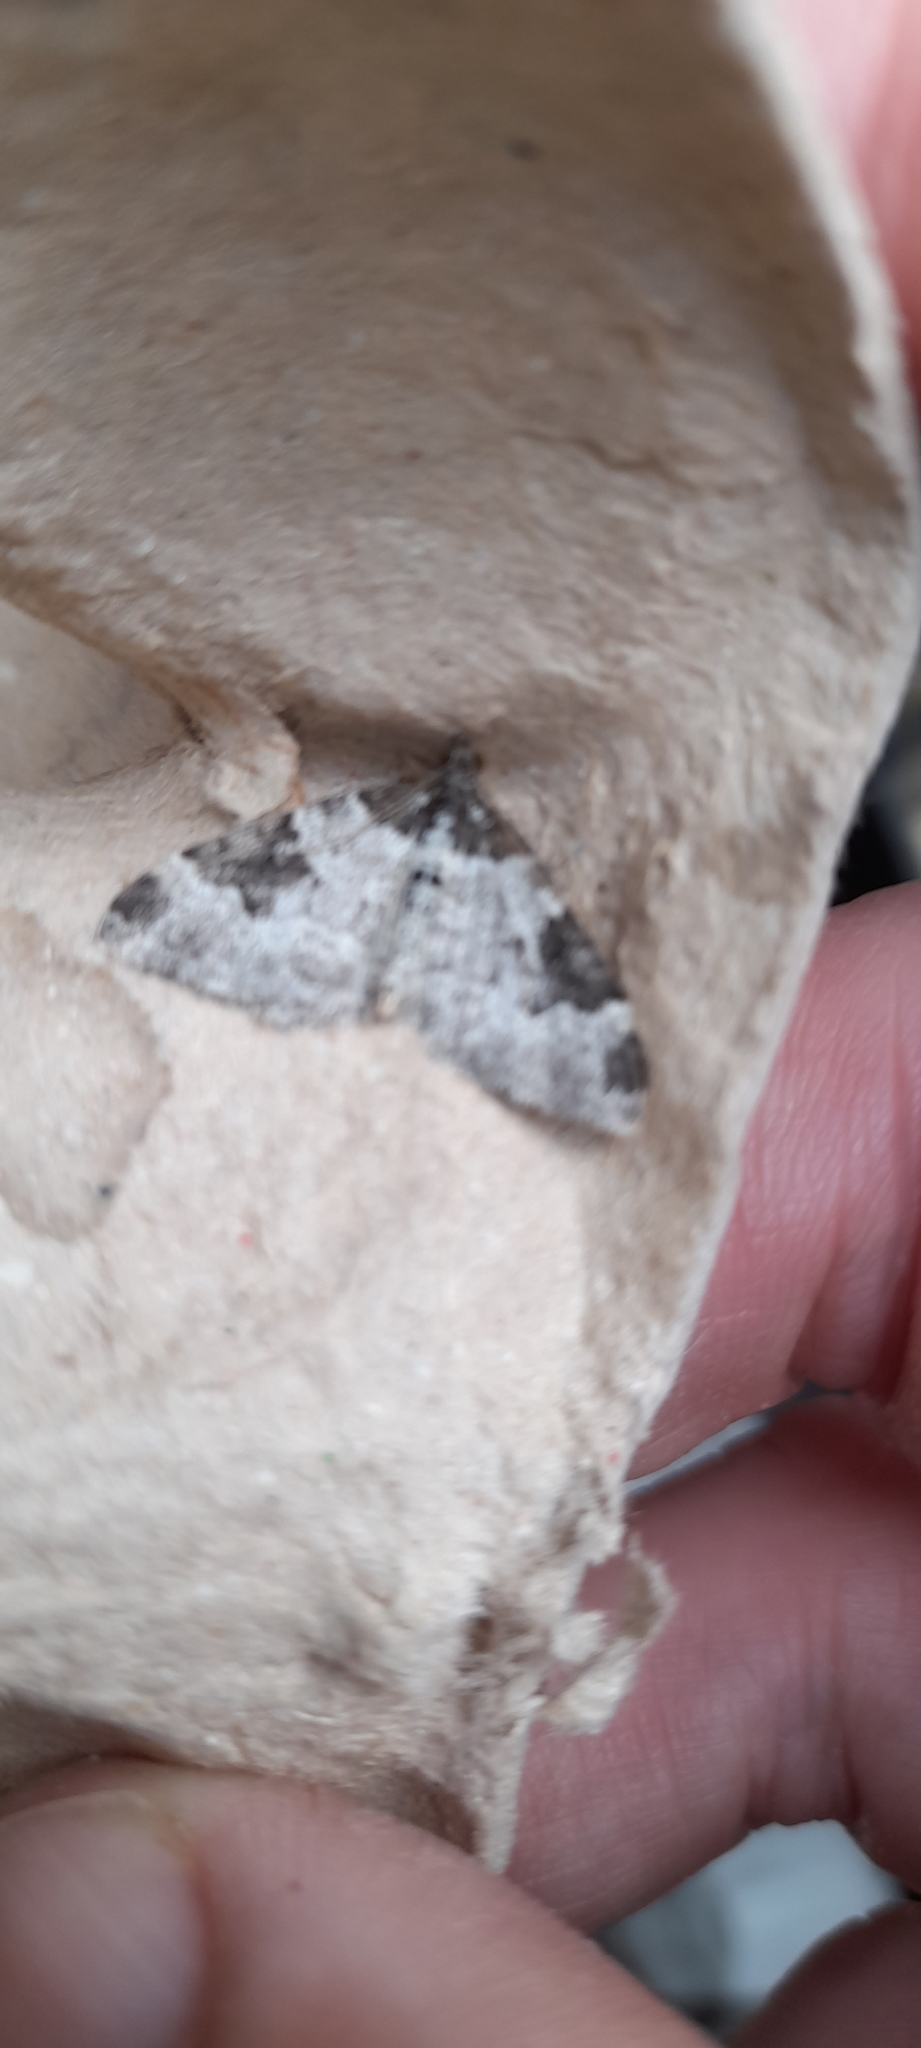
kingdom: Animalia
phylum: Arthropoda
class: Insecta
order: Lepidoptera
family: Geometridae
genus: Xanthorhoe
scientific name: Xanthorhoe fluctuata
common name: Garden carpet
